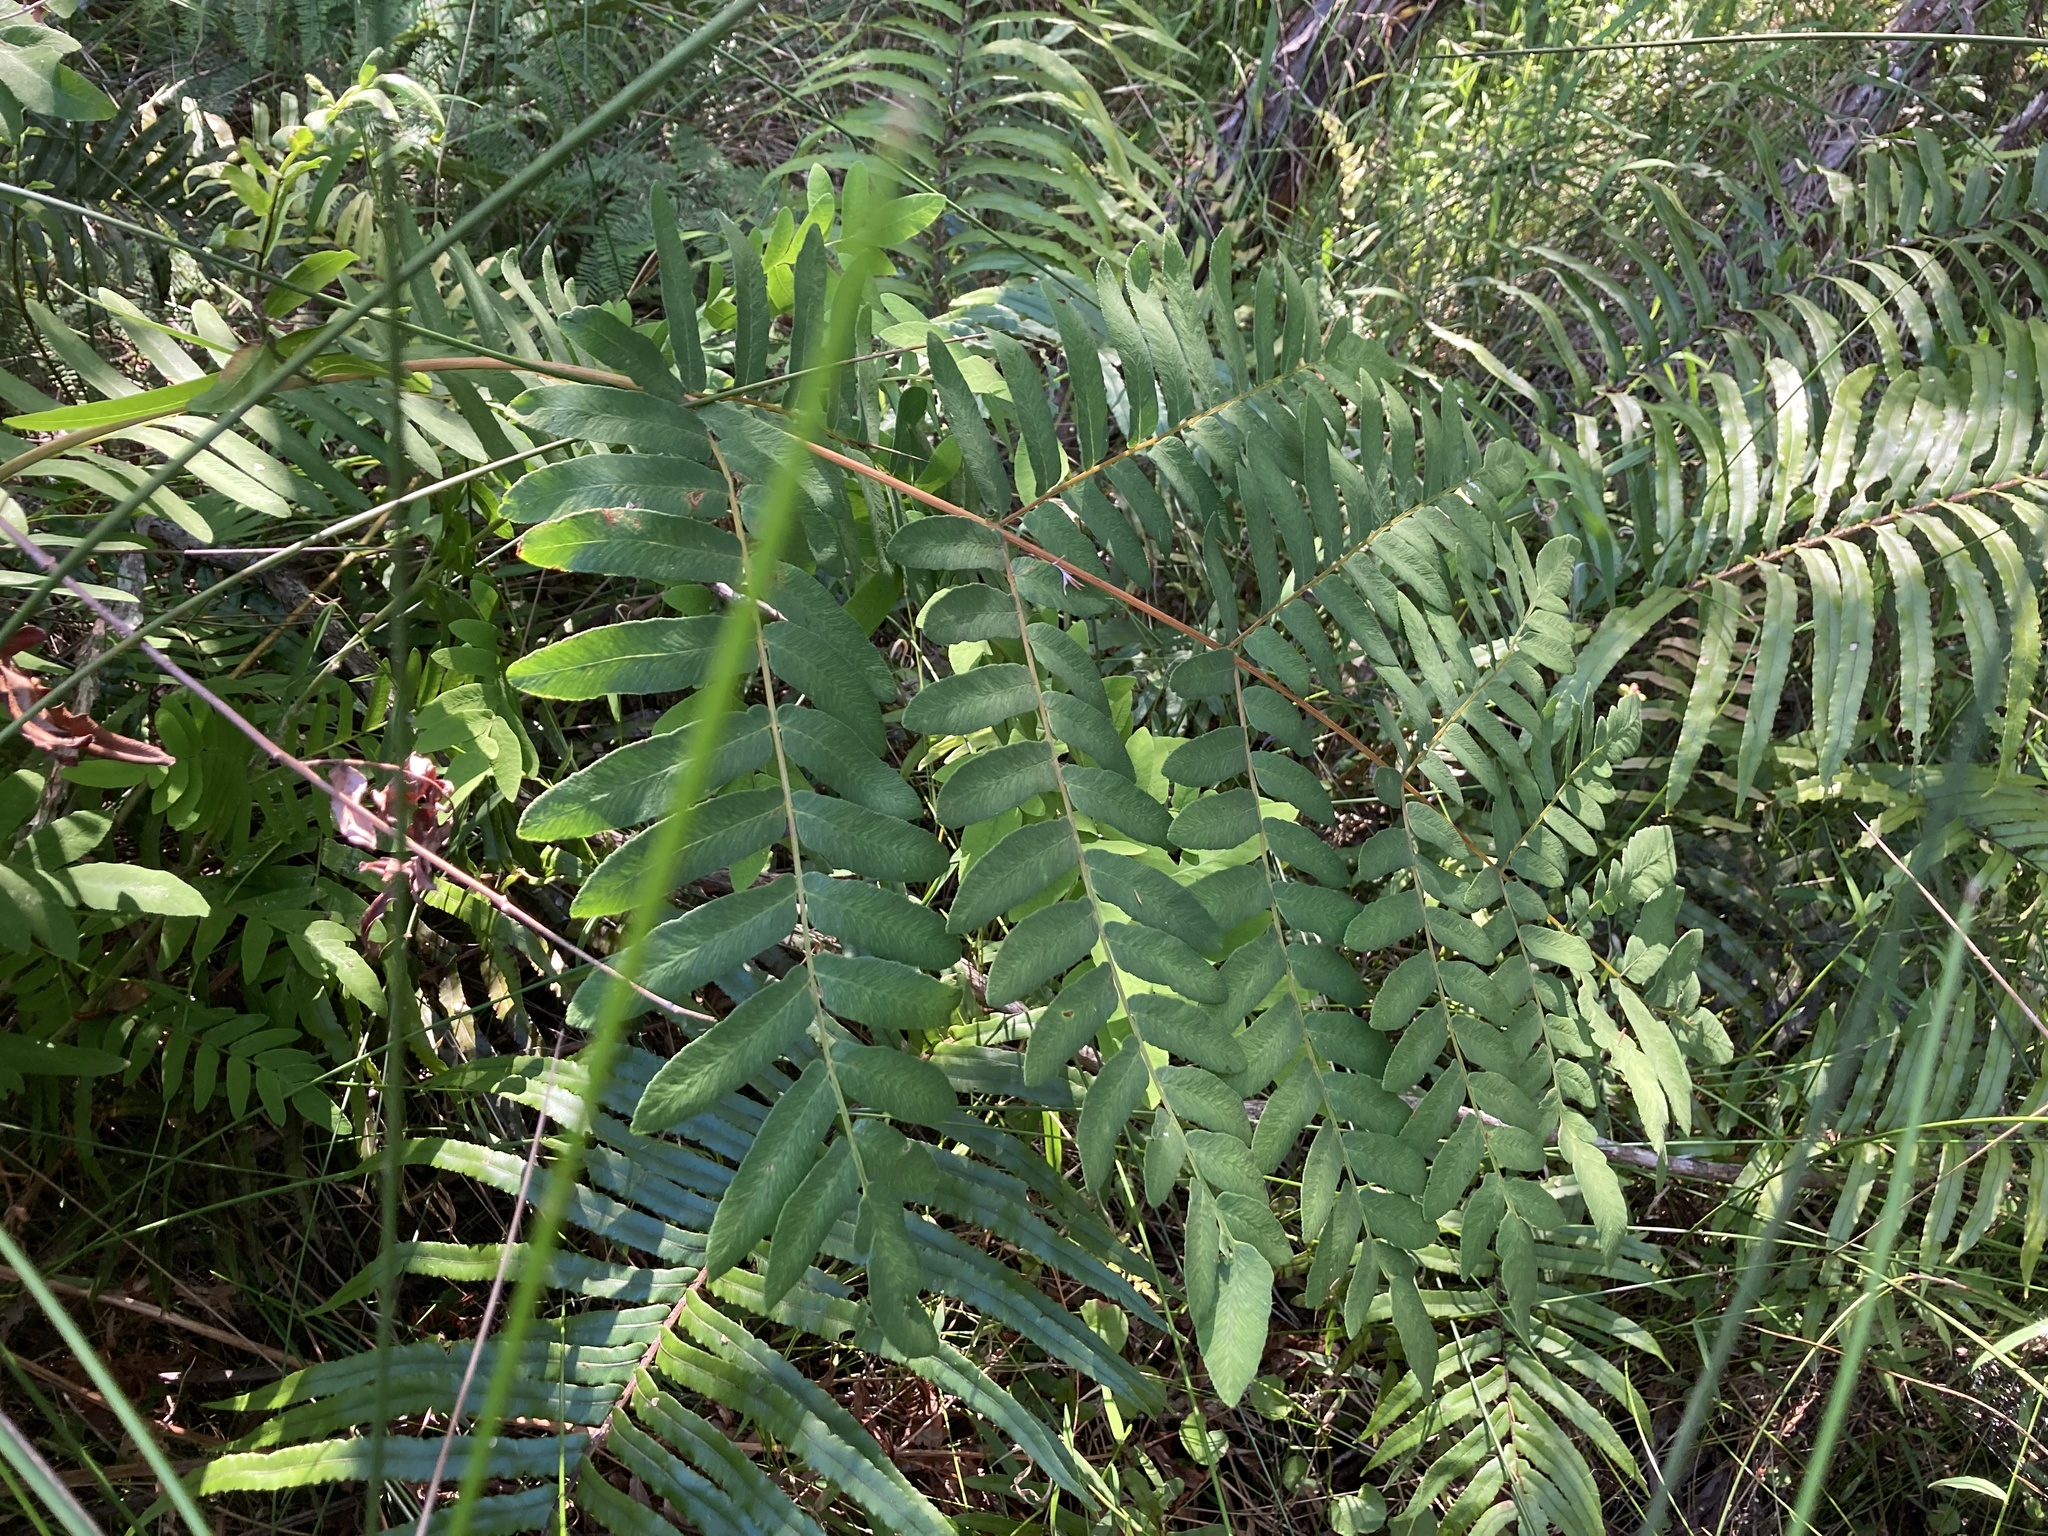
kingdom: Plantae
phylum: Tracheophyta
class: Polypodiopsida
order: Osmundales
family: Osmundaceae
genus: Osmunda
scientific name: Osmunda regalis
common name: Royal fern
